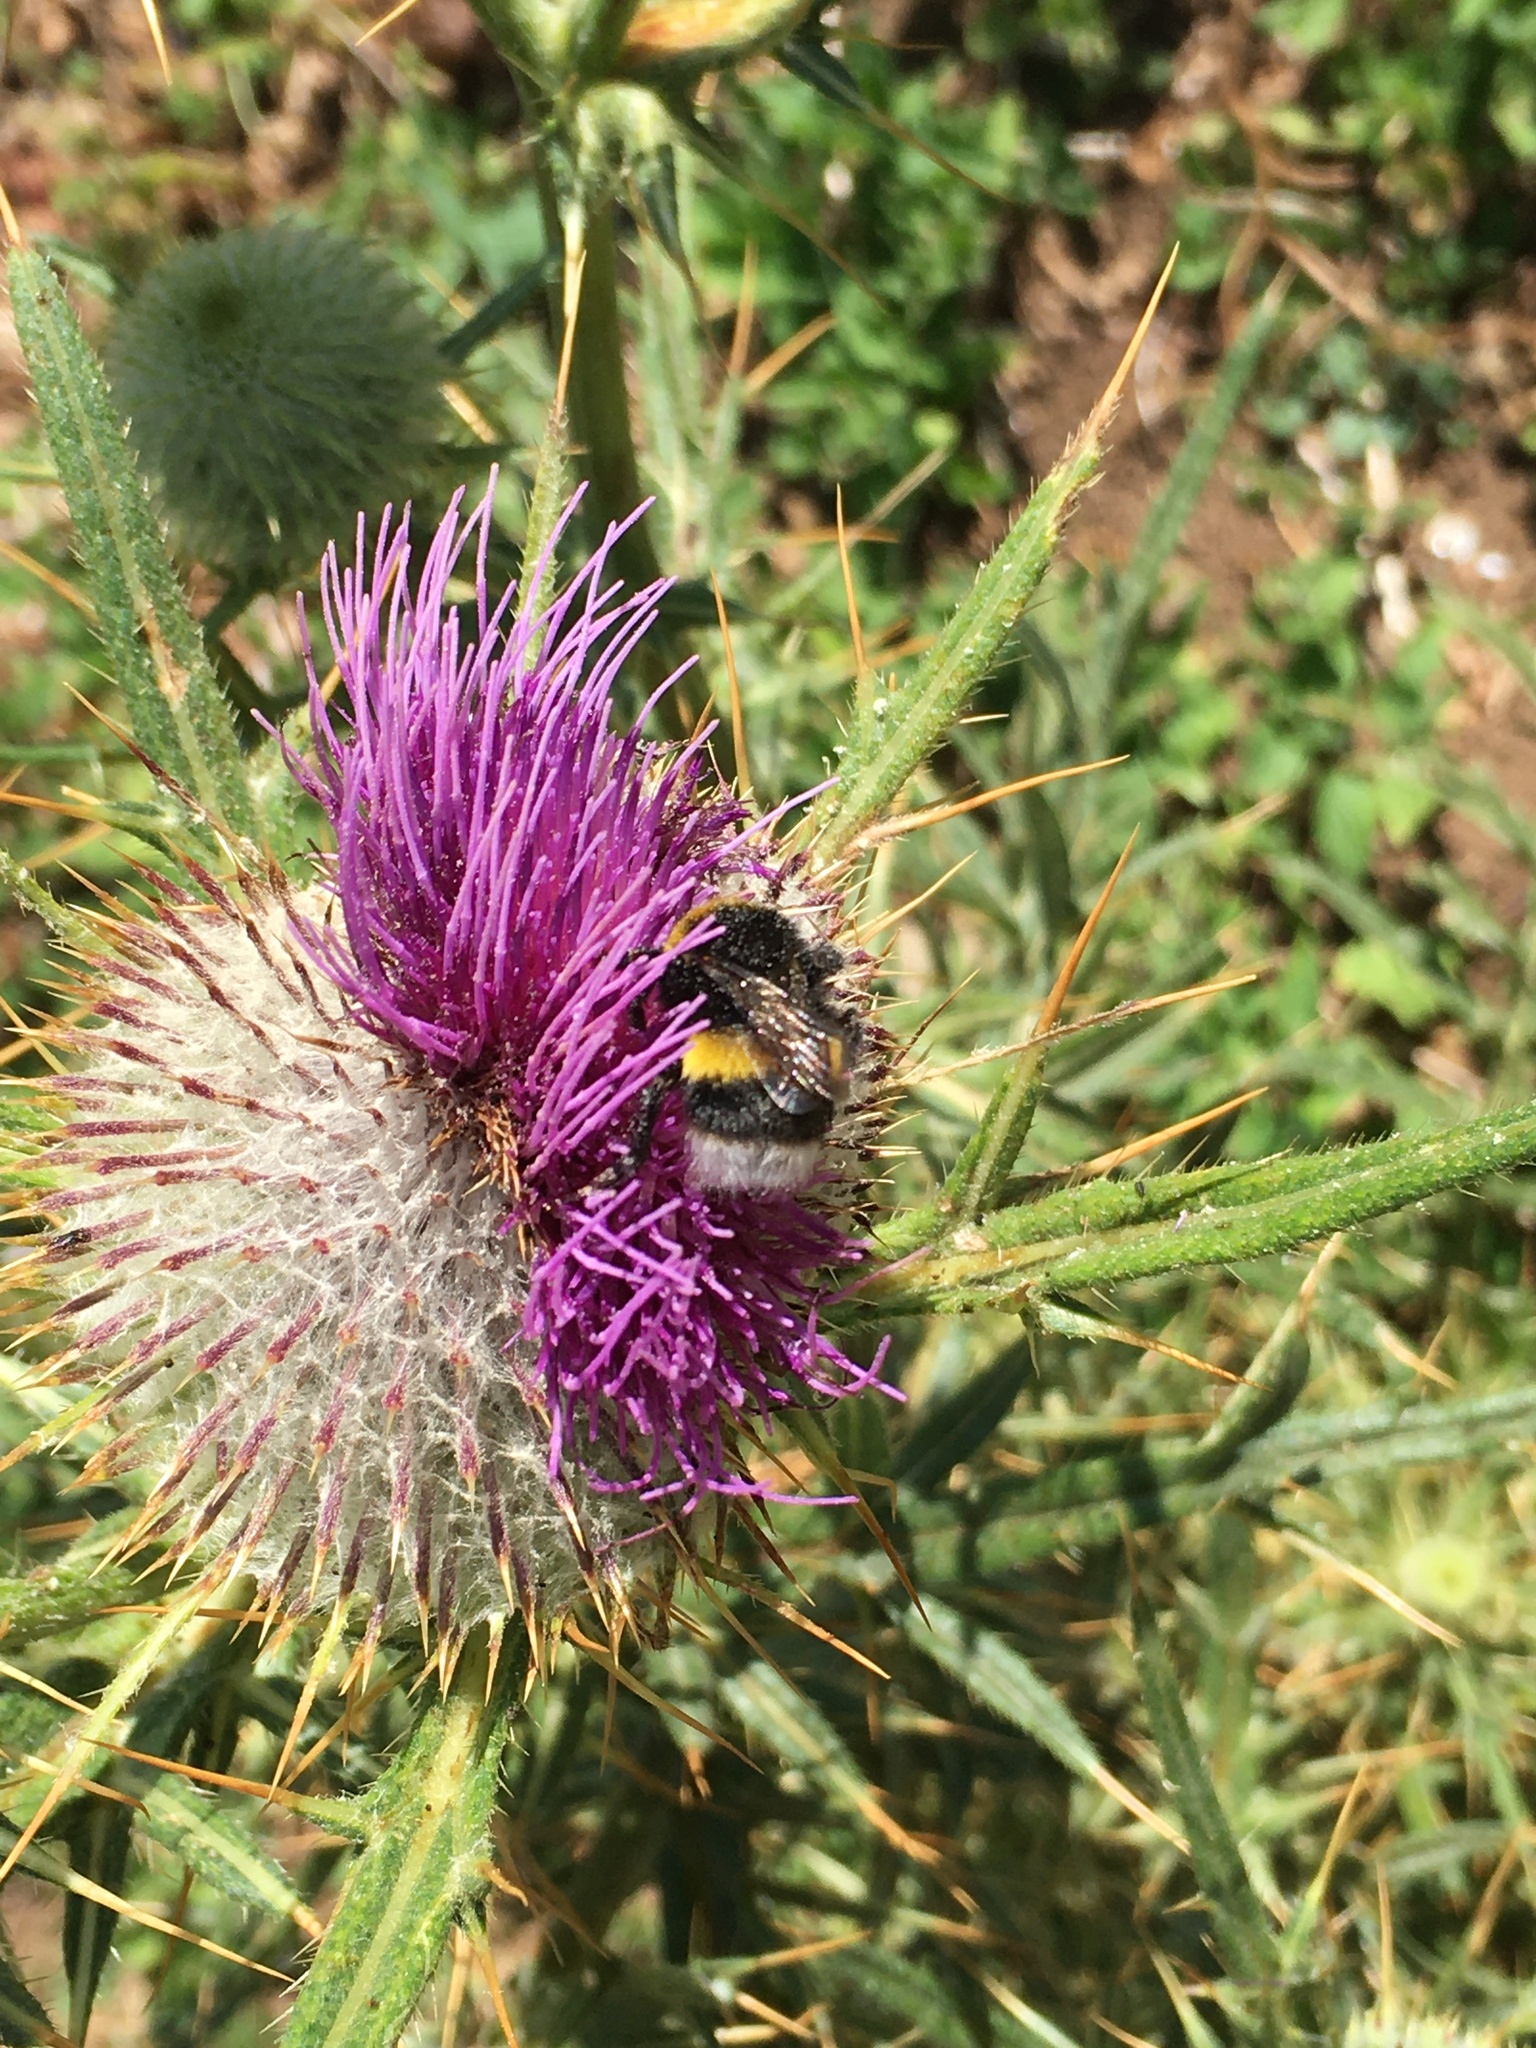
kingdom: Plantae
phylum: Tracheophyta
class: Magnoliopsida
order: Asterales
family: Asteraceae
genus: Lophiolepis
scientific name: Lophiolepis eriophora
